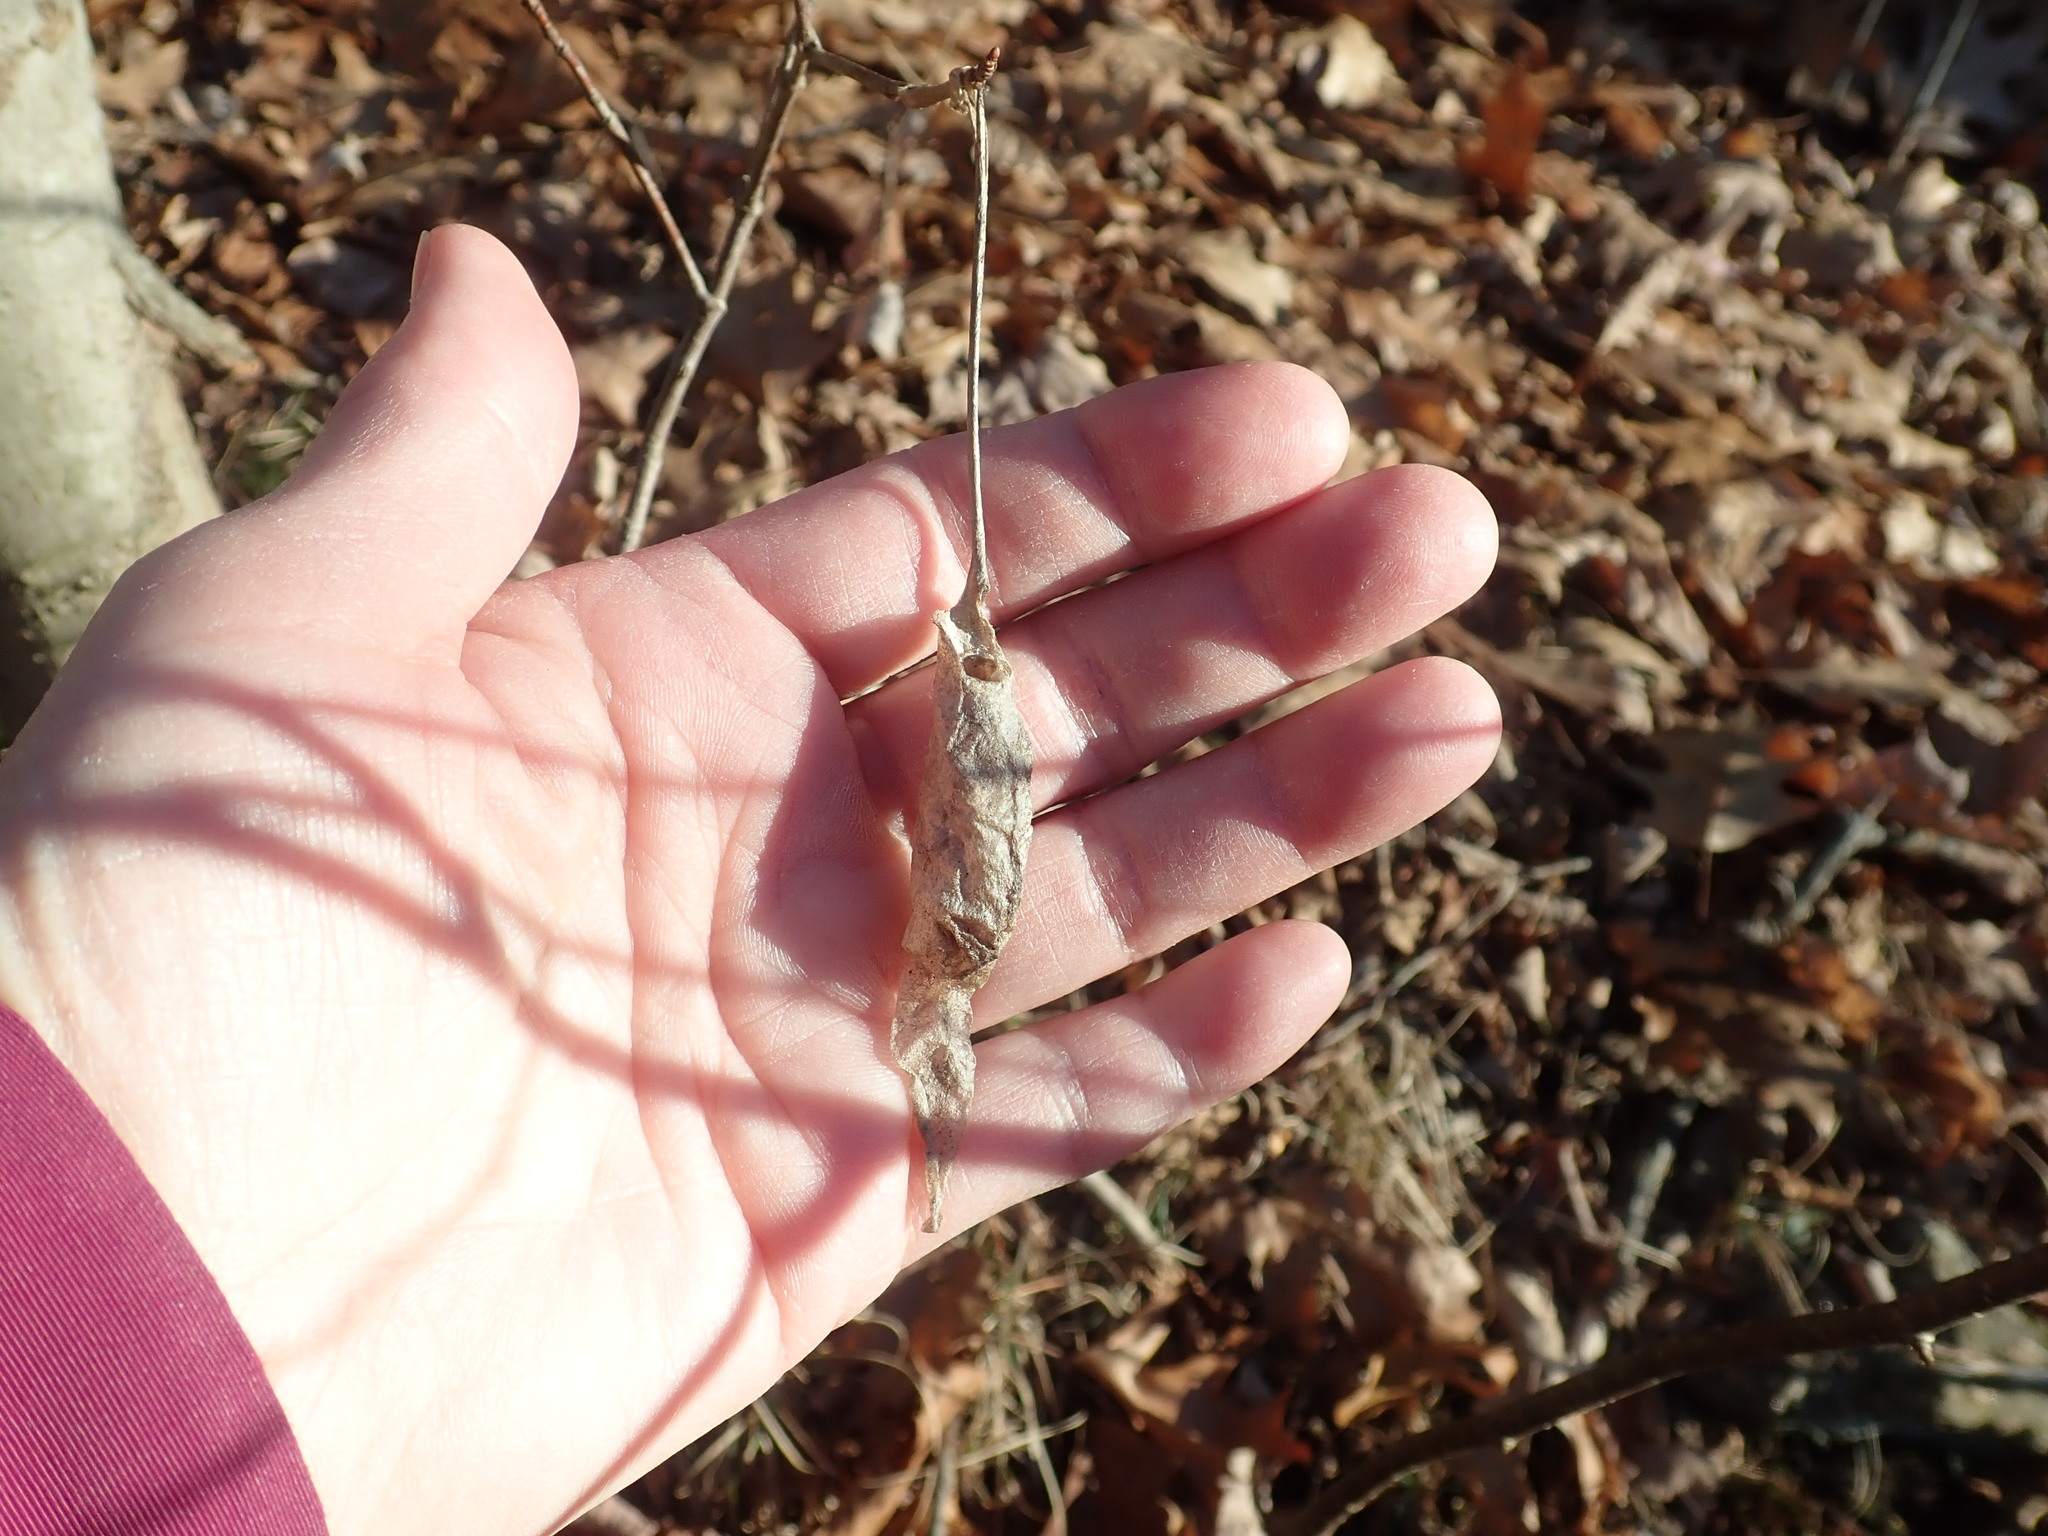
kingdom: Animalia
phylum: Arthropoda
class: Insecta
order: Lepidoptera
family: Saturniidae
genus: Callosamia
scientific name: Callosamia promethea
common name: Promethea silkmoth
